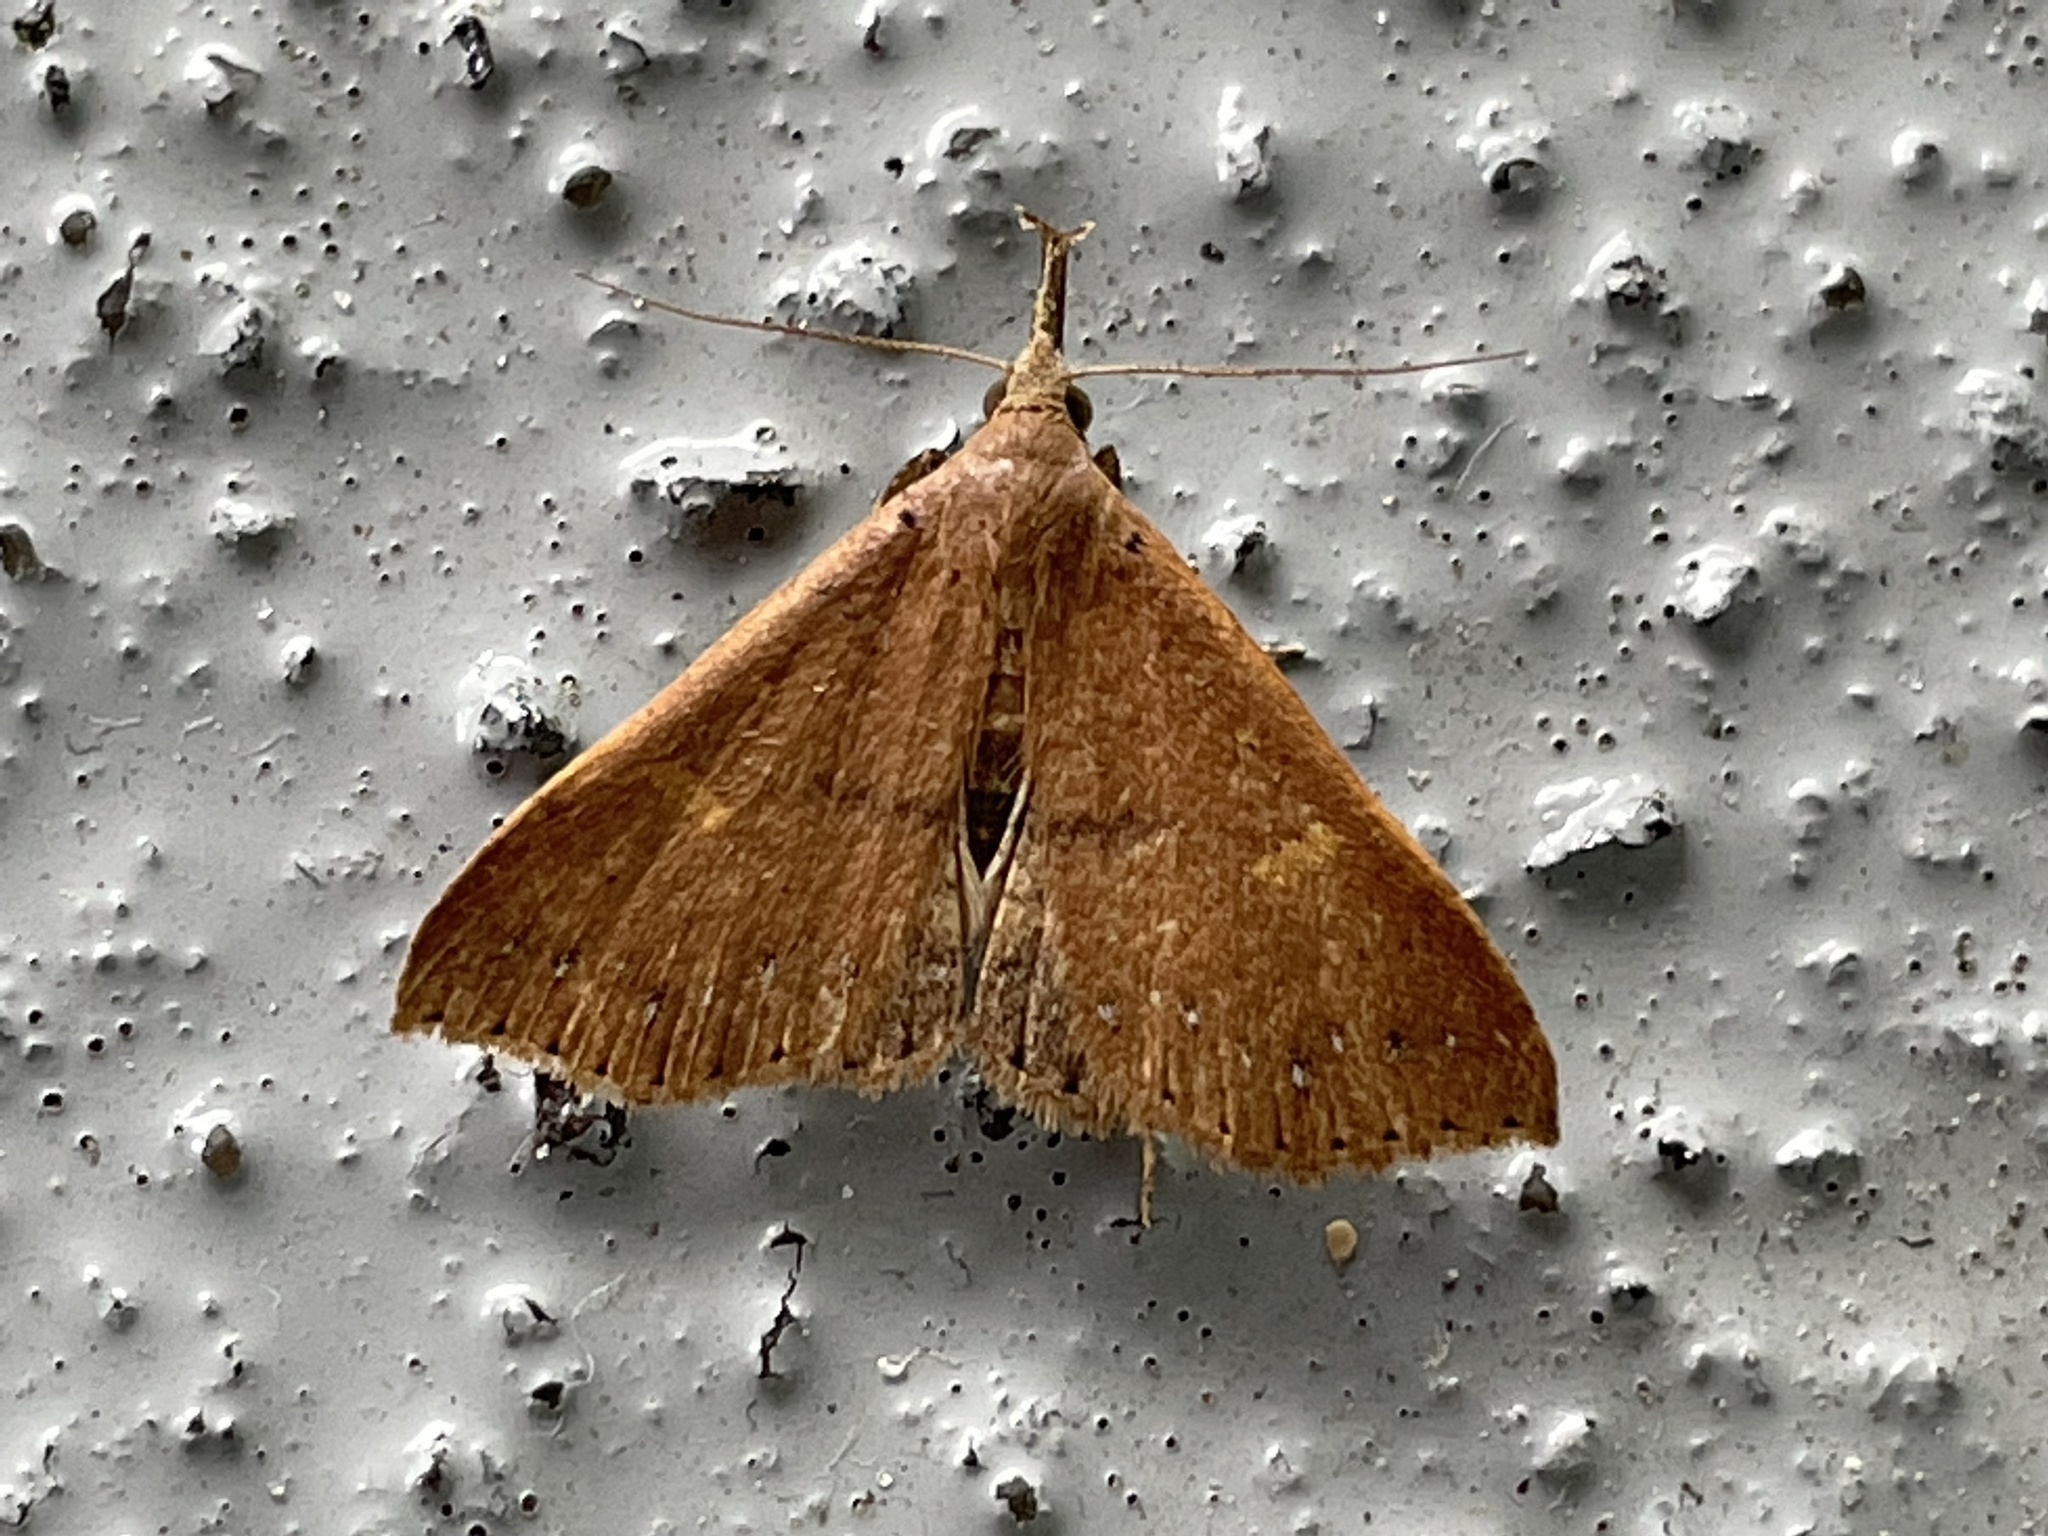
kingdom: Animalia
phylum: Arthropoda
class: Insecta
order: Lepidoptera
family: Erebidae
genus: Renia
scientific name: Renia adspergillus
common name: Speckled renia moth
